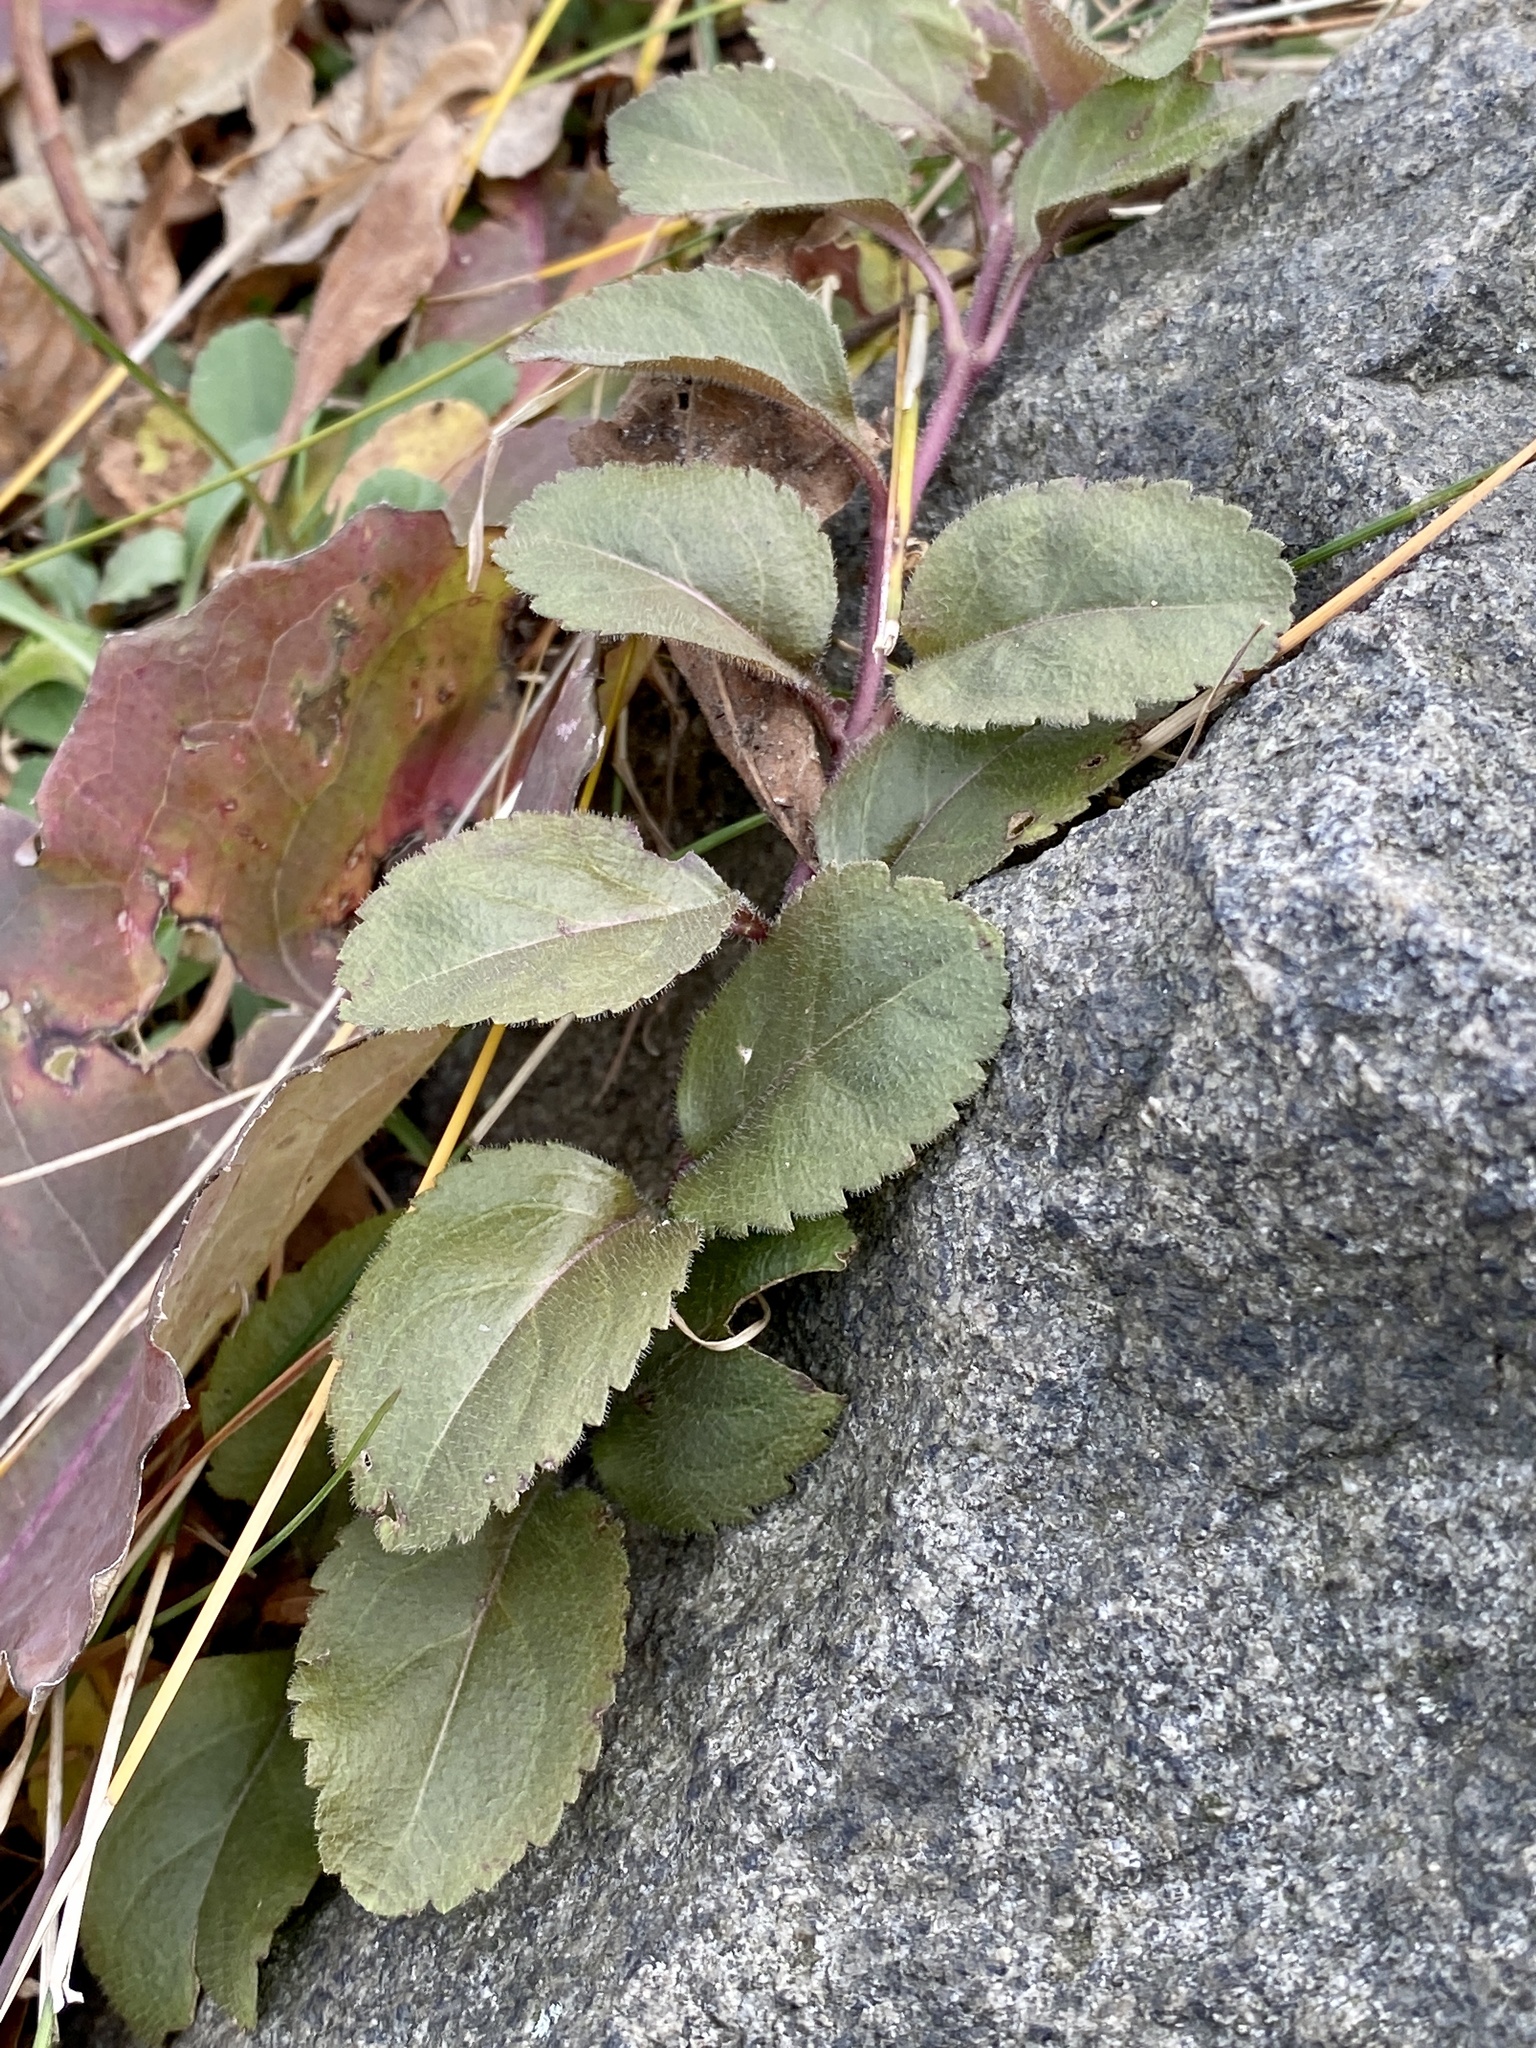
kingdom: Plantae
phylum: Tracheophyta
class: Magnoliopsida
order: Lamiales
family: Plantaginaceae
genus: Veronica
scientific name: Veronica officinalis
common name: Common speedwell
